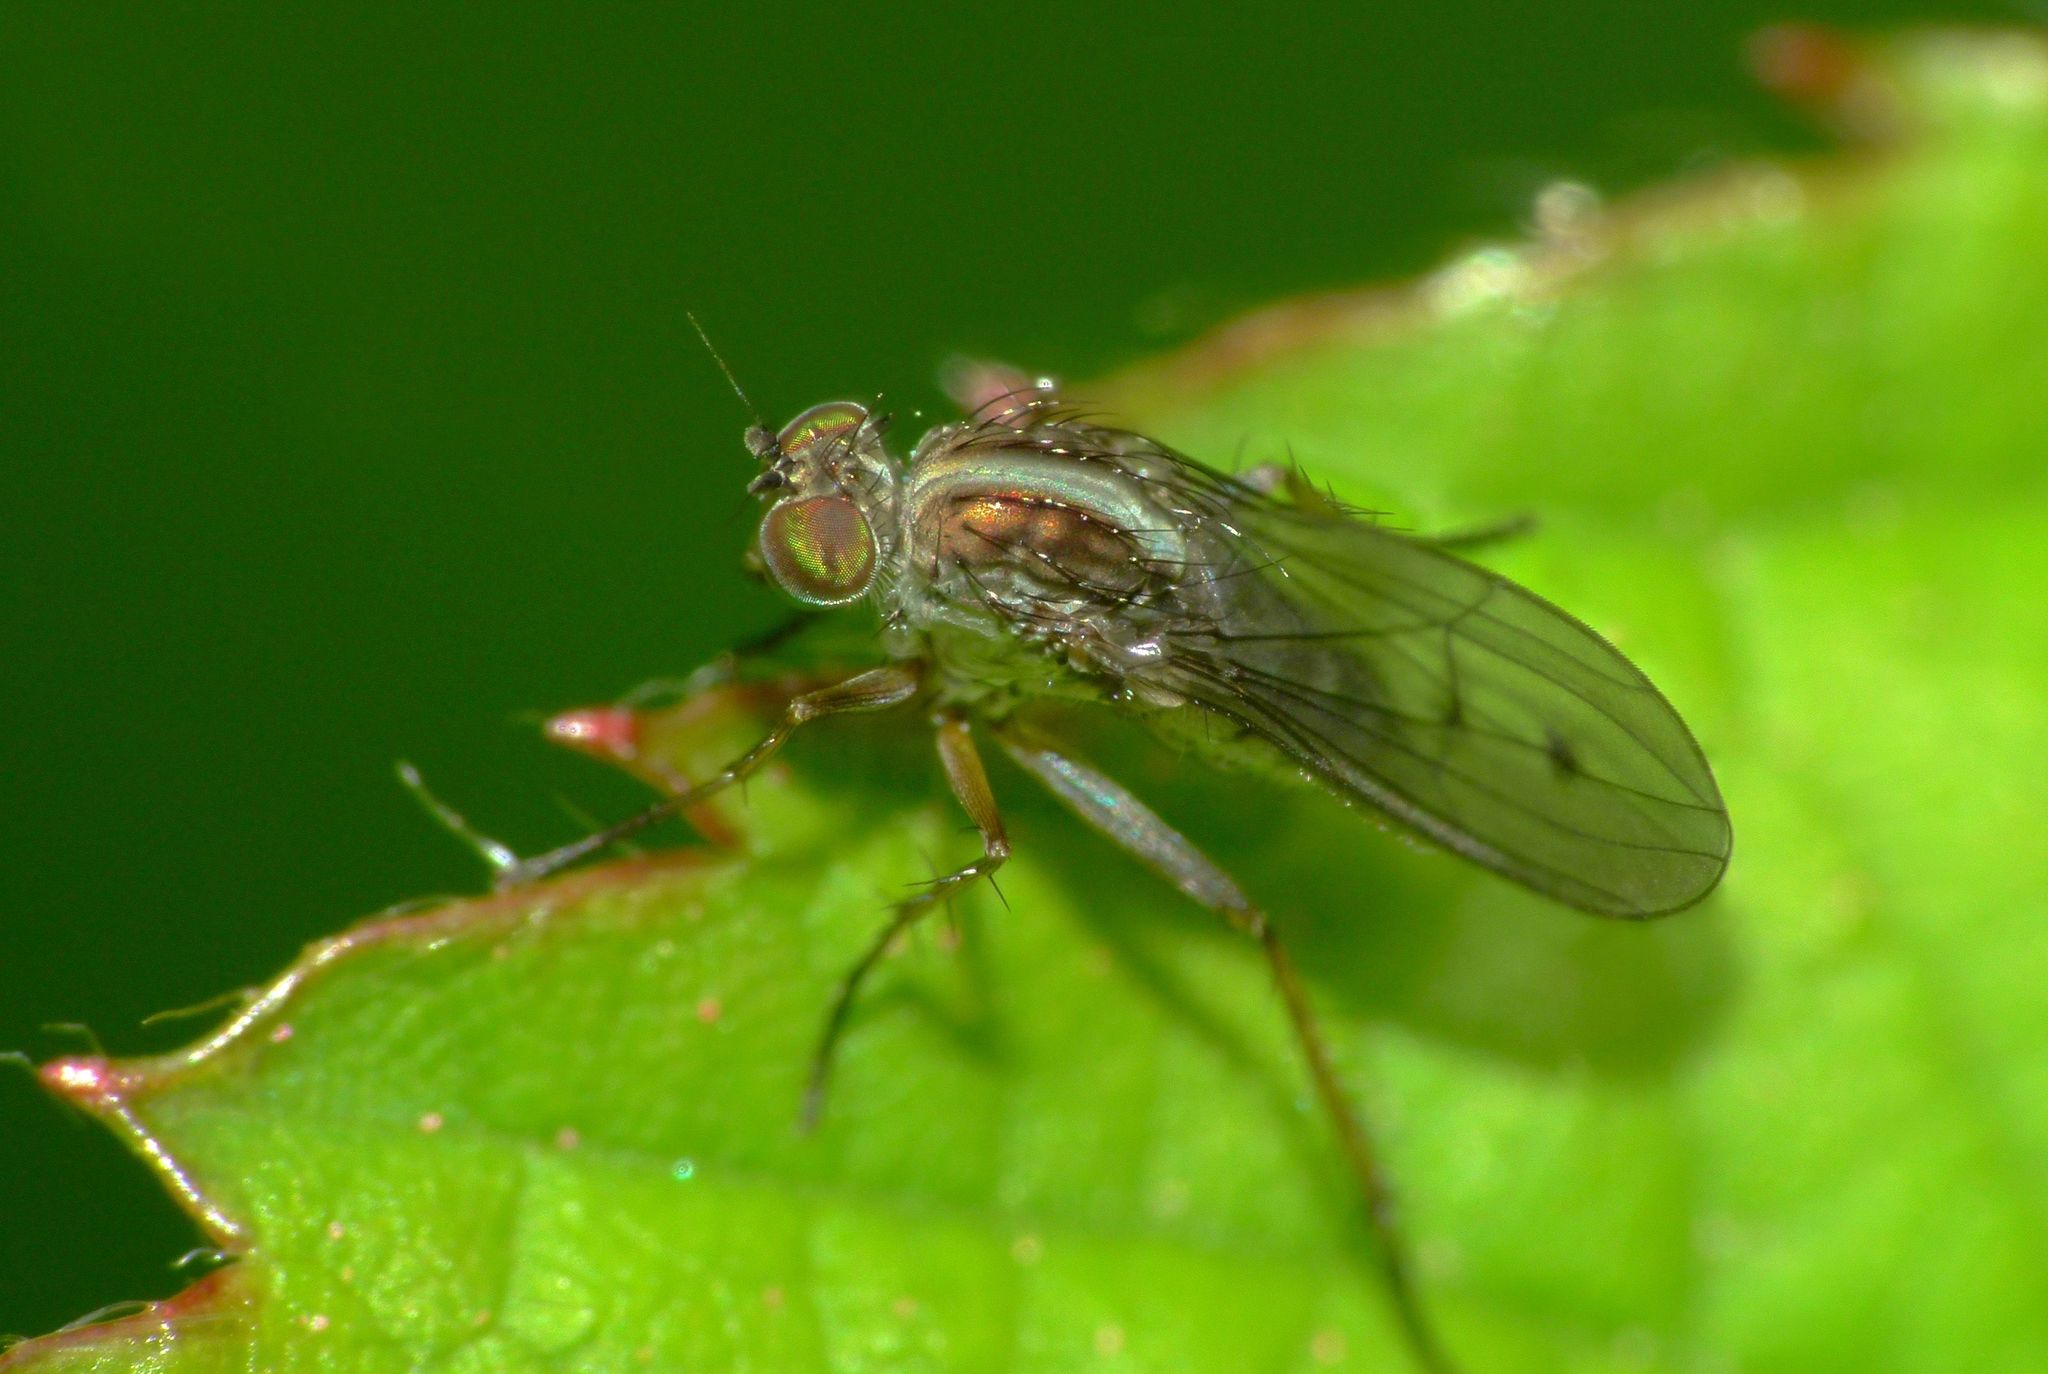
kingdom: Animalia
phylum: Arthropoda
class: Insecta
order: Diptera
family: Dolichopodidae
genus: Tetrachaetus
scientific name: Tetrachaetus bipunctatus
